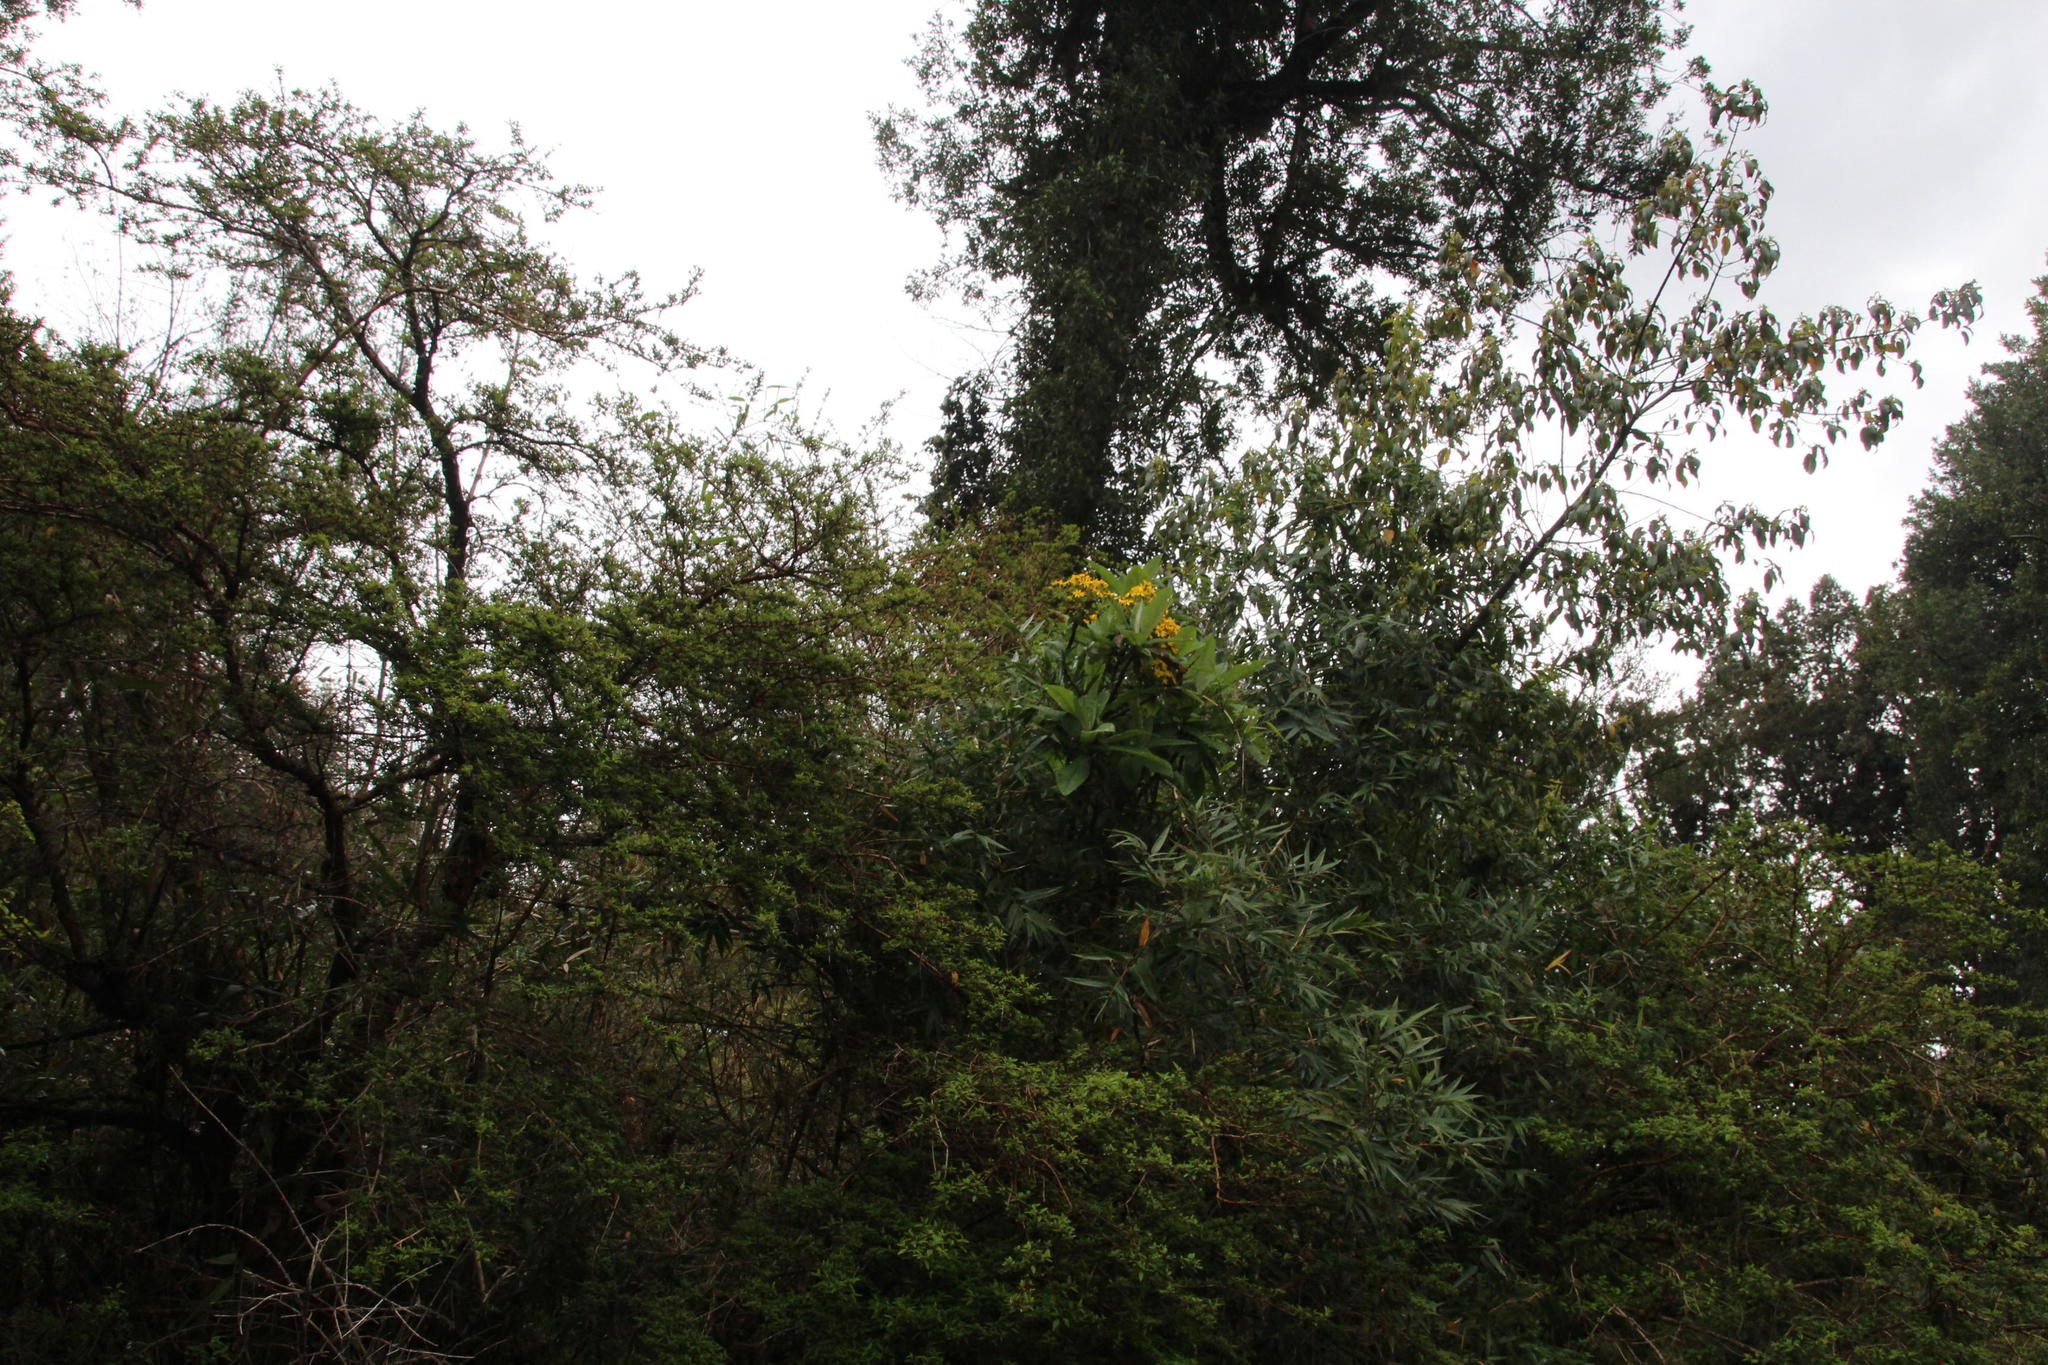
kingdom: Plantae
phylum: Tracheophyta
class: Magnoliopsida
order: Asterales
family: Asteraceae
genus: Acrisione
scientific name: Acrisione cymosa
